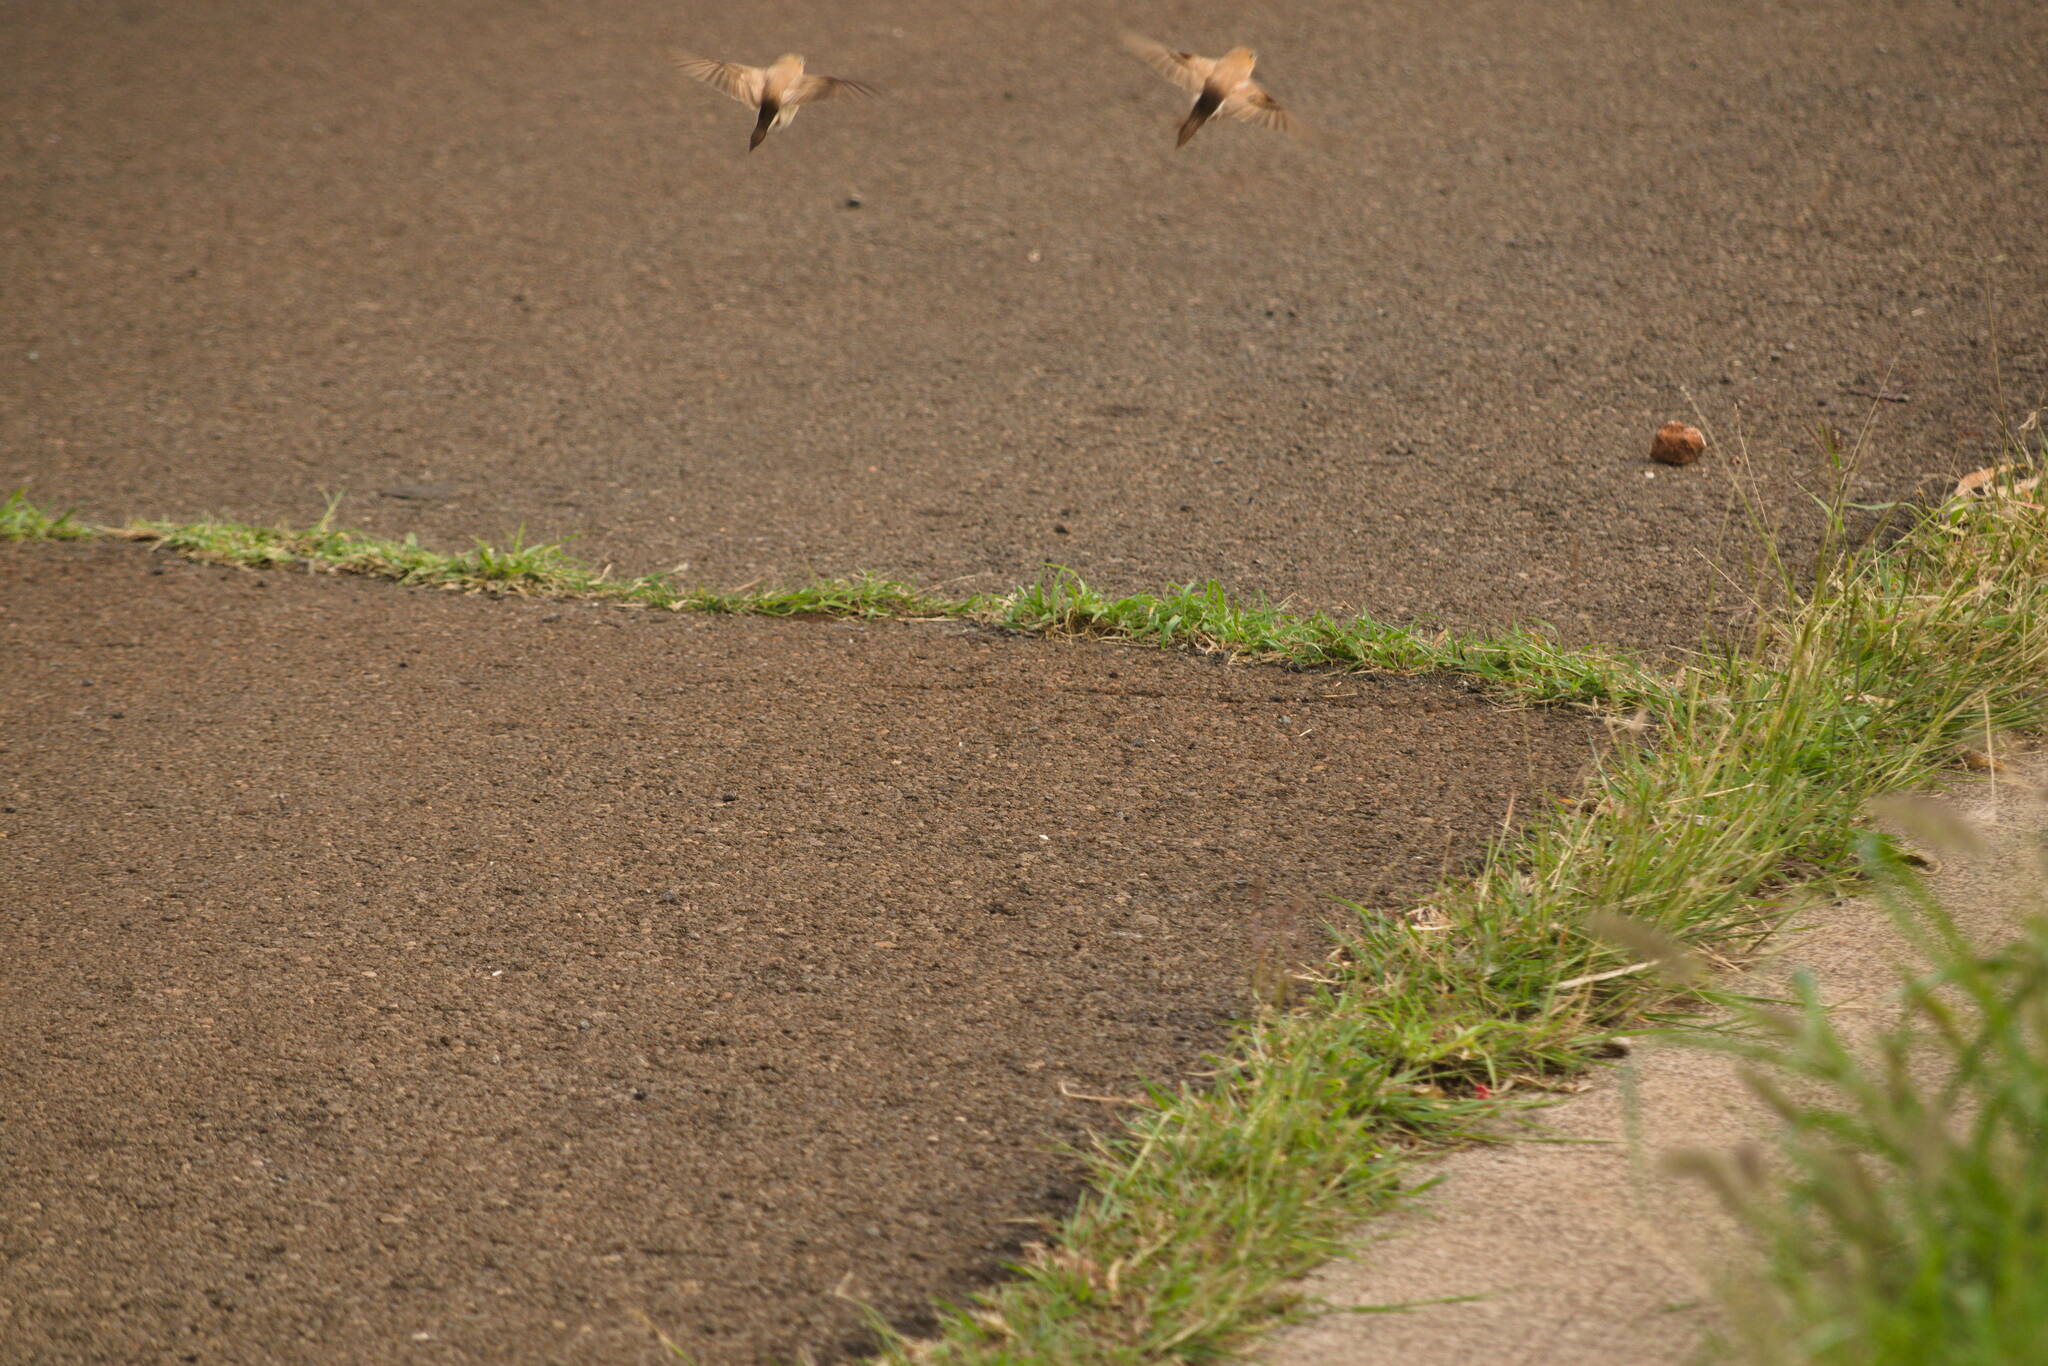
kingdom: Animalia
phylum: Chordata
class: Aves
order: Passeriformes
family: Estrildidae
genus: Euodice
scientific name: Euodice cantans
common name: African silverbill
